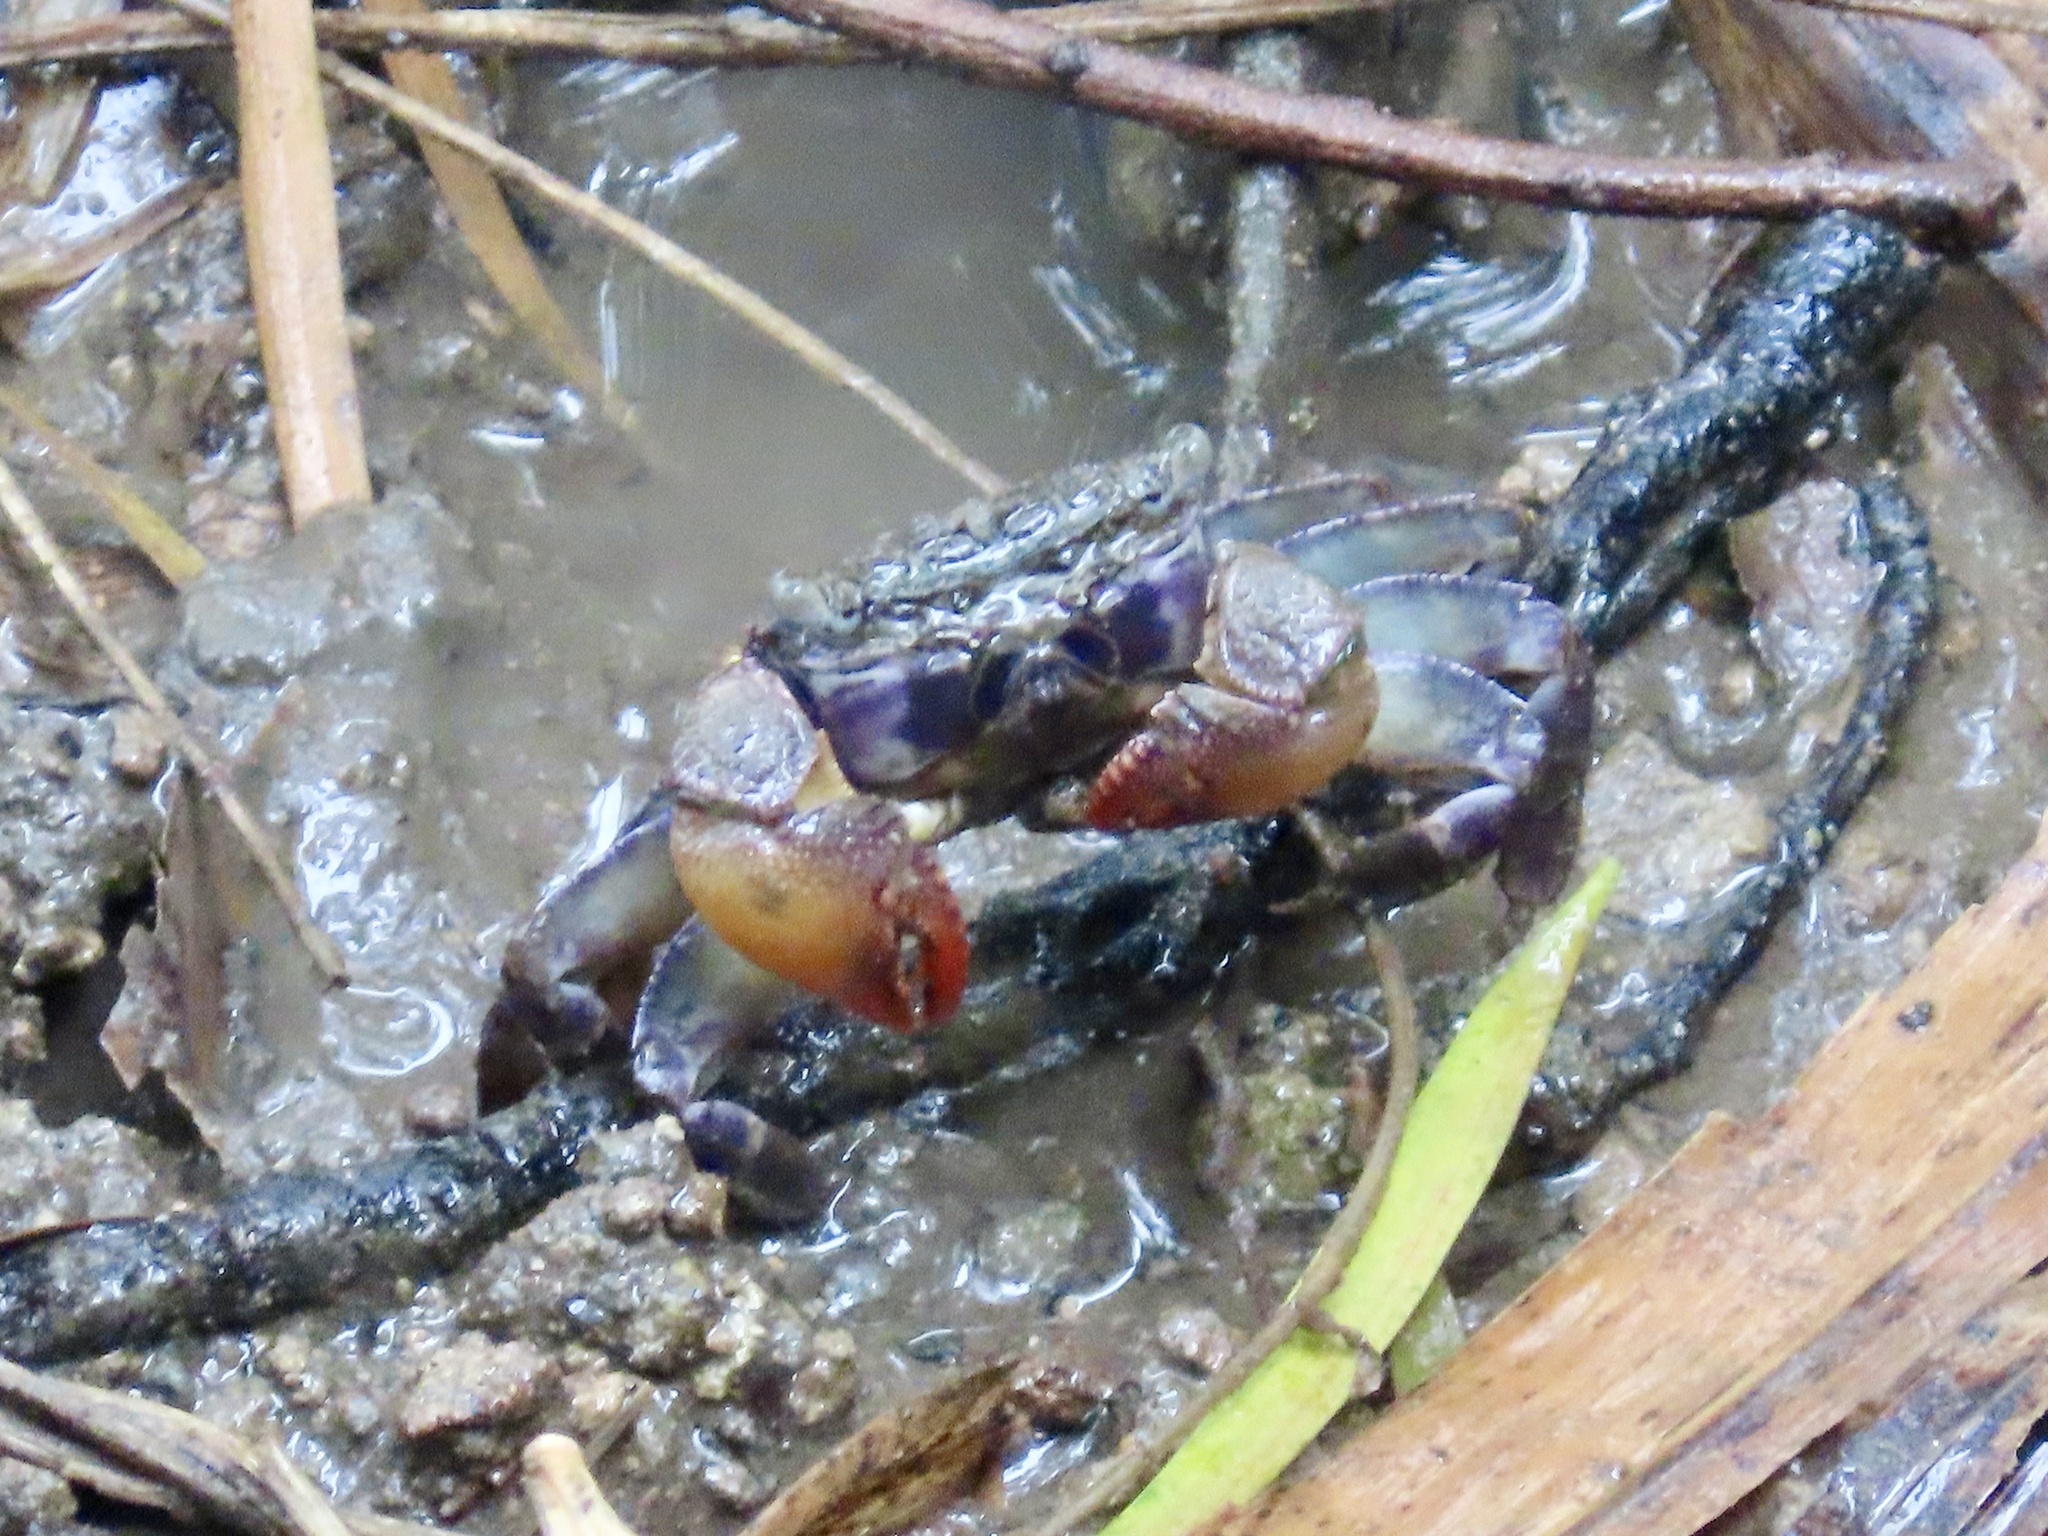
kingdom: Animalia
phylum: Arthropoda
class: Malacostraca
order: Decapoda
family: Sesarmidae
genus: Parasesarma
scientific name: Parasesarma insulare
